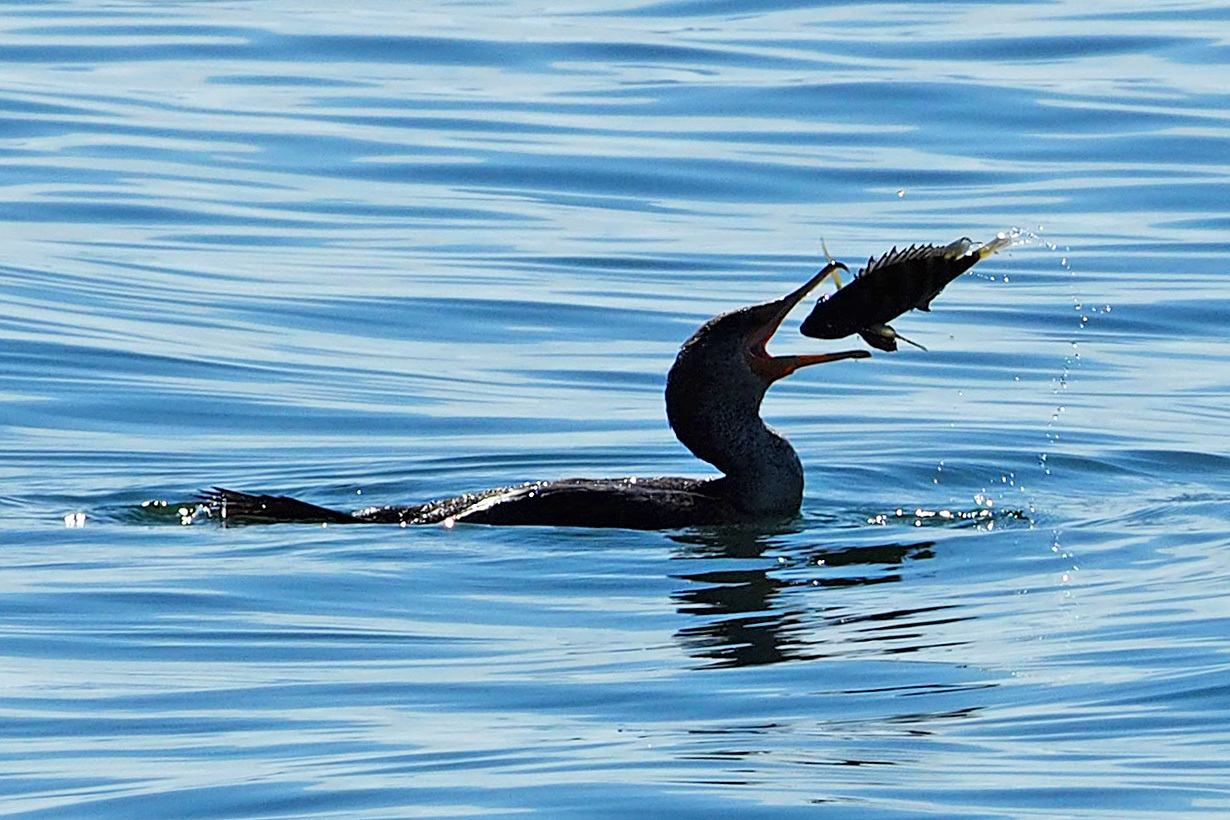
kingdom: Animalia
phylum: Chordata
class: Aves
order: Suliformes
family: Phalacrocoracidae
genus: Phalacrocorax
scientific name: Phalacrocorax auritus
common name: Double-crested cormorant
